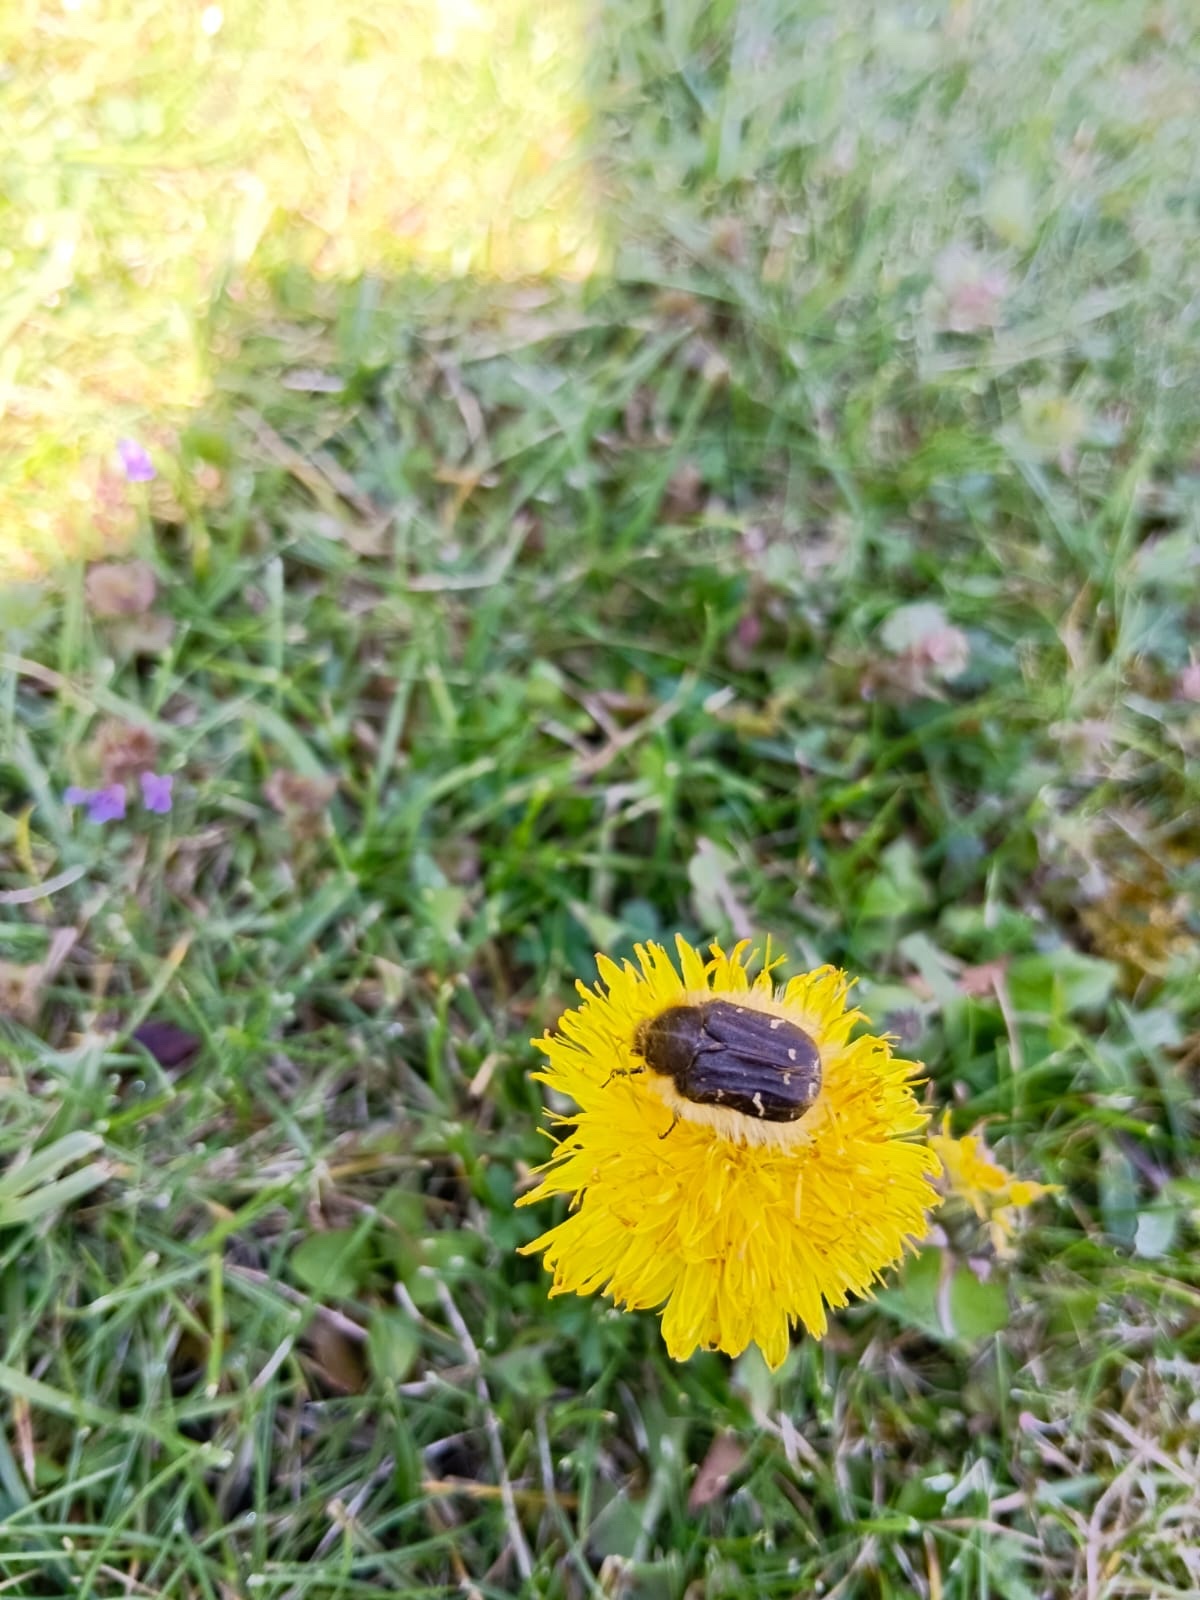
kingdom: Animalia
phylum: Arthropoda
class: Insecta
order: Coleoptera
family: Scarabaeidae
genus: Tropinota
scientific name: Tropinota hirta
